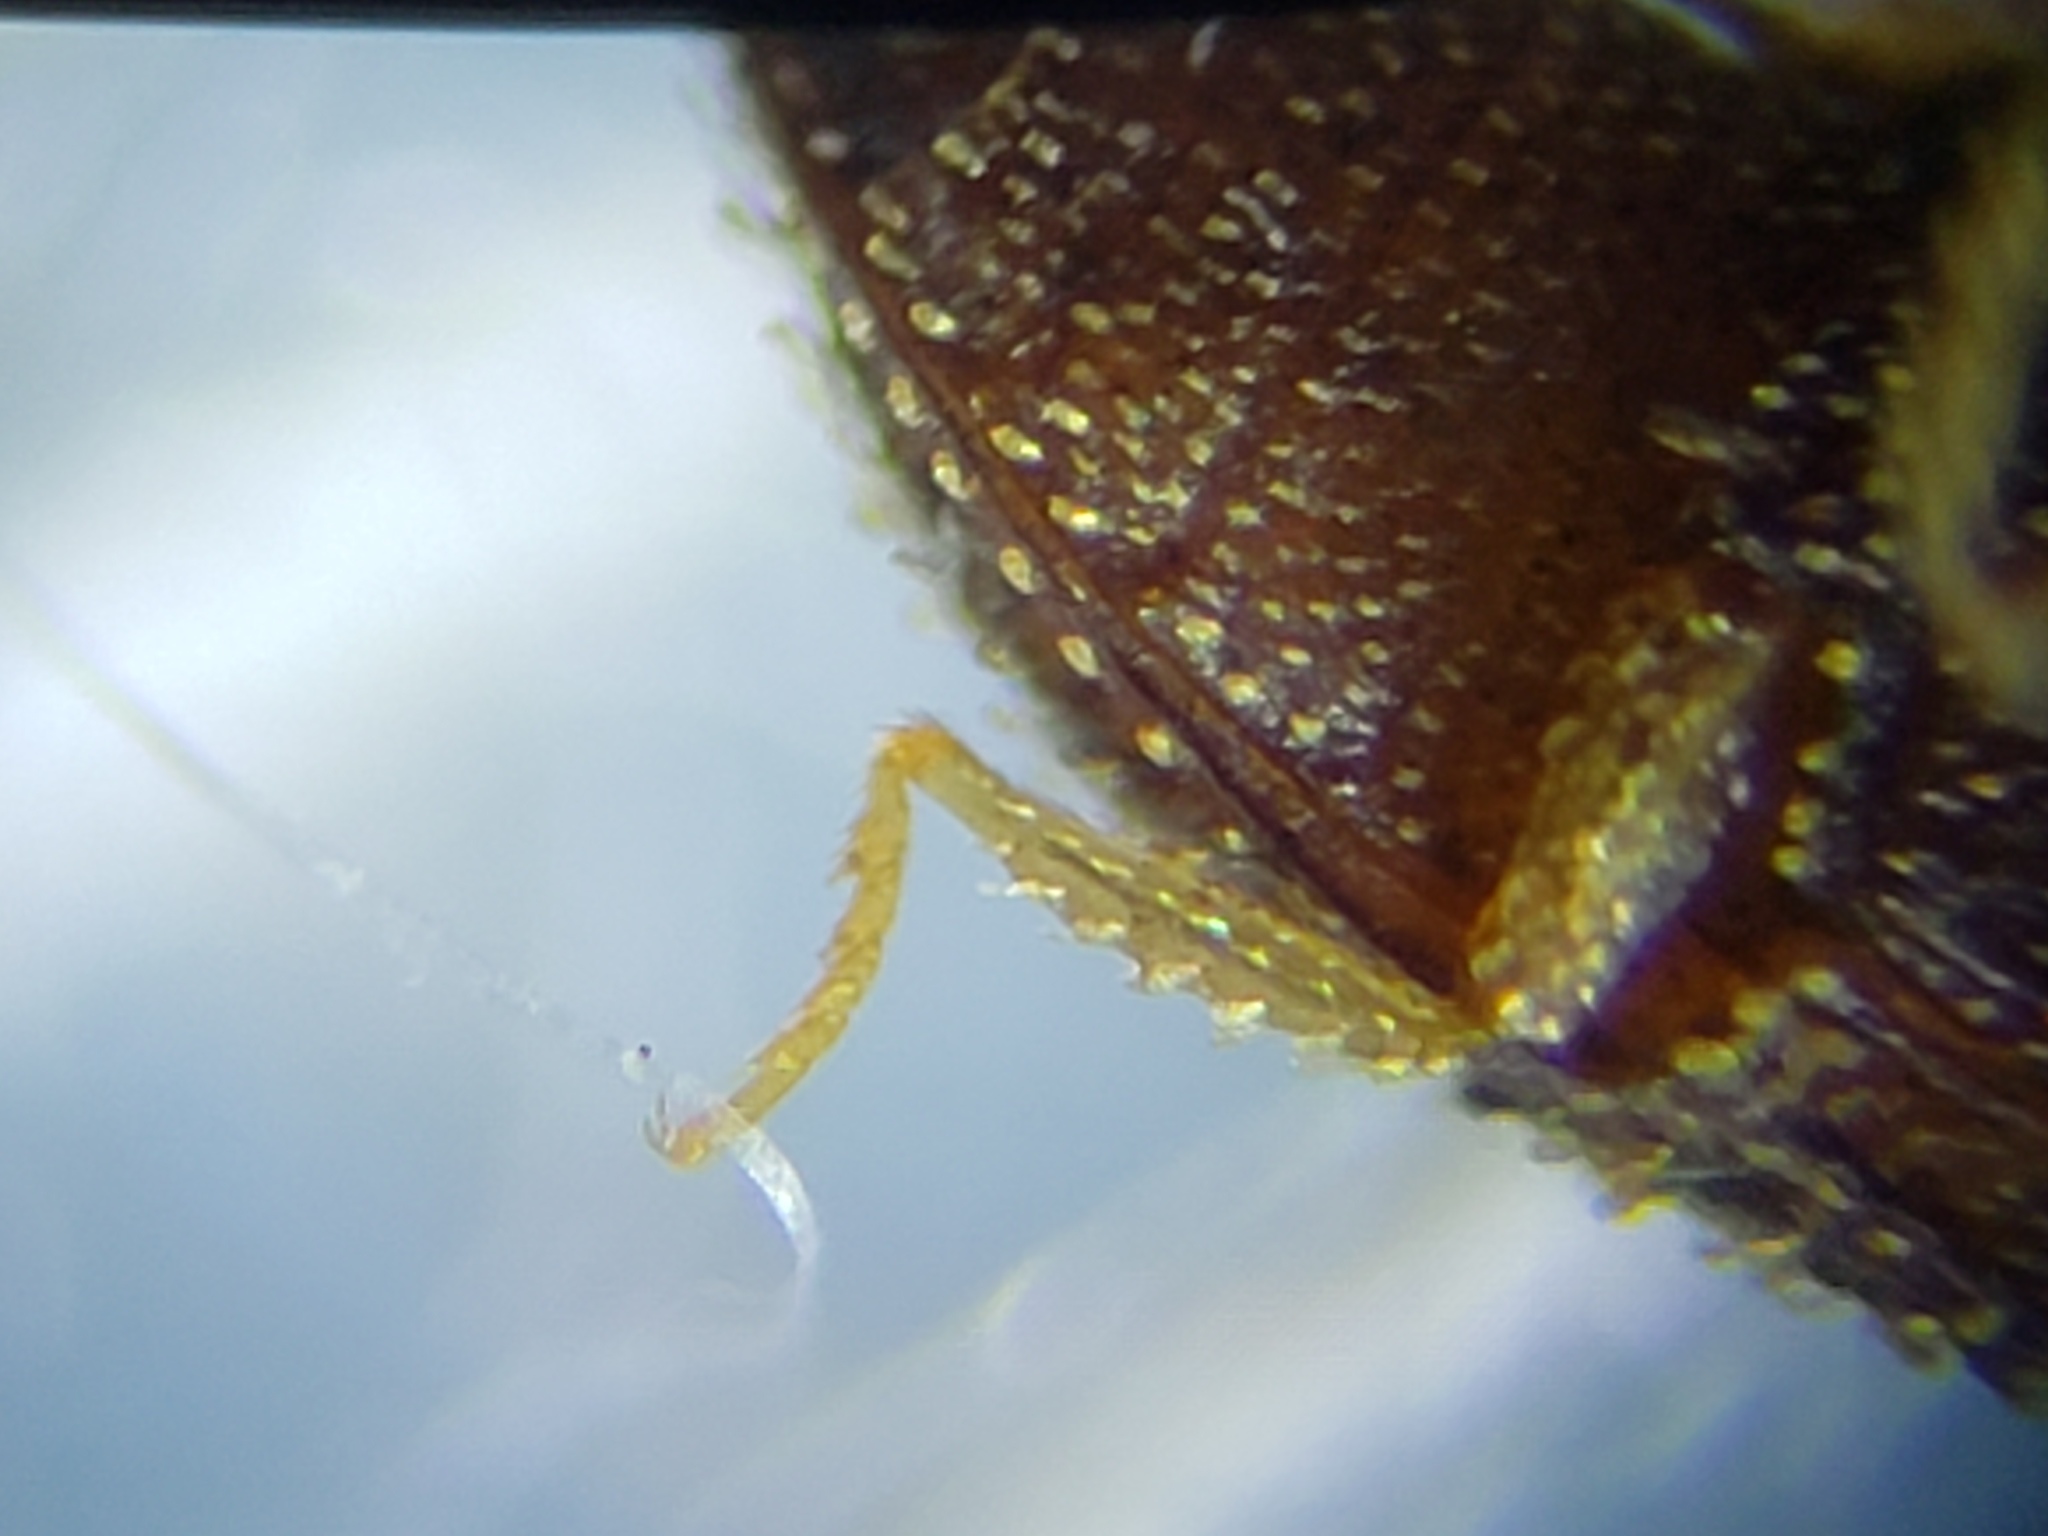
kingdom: Animalia
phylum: Arthropoda
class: Insecta
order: Coleoptera
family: Elateridae
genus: Rismethus
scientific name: Rismethus
